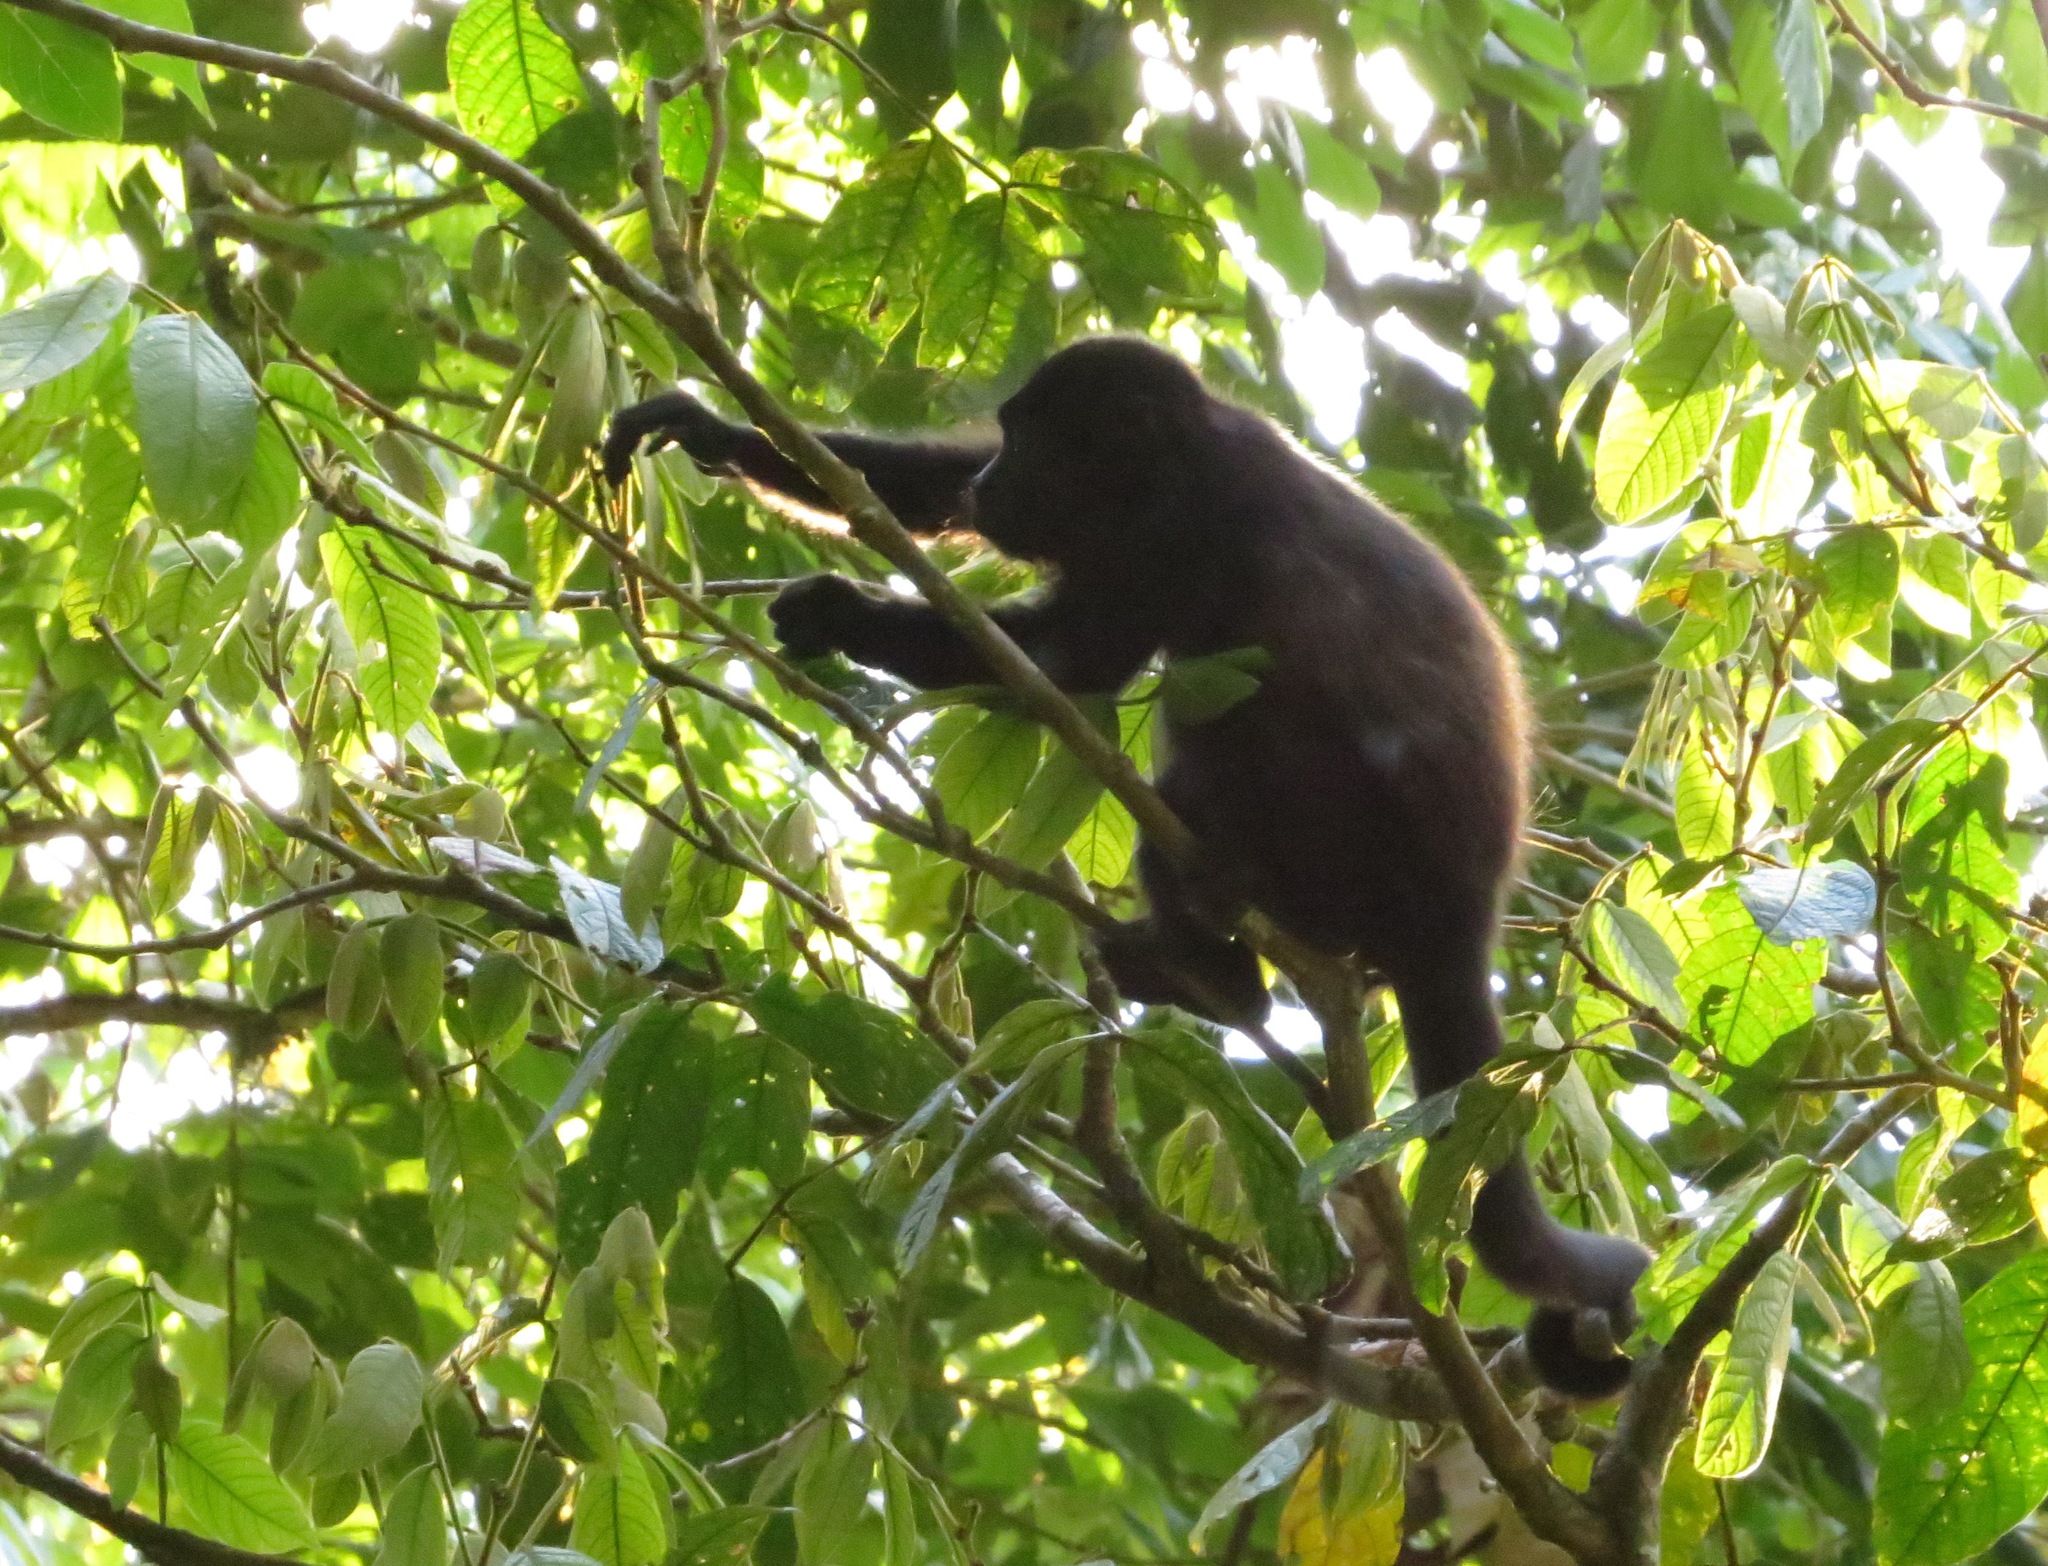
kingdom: Animalia
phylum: Chordata
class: Mammalia
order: Primates
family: Atelidae
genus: Alouatta
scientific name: Alouatta palliata
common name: Mantled howler
